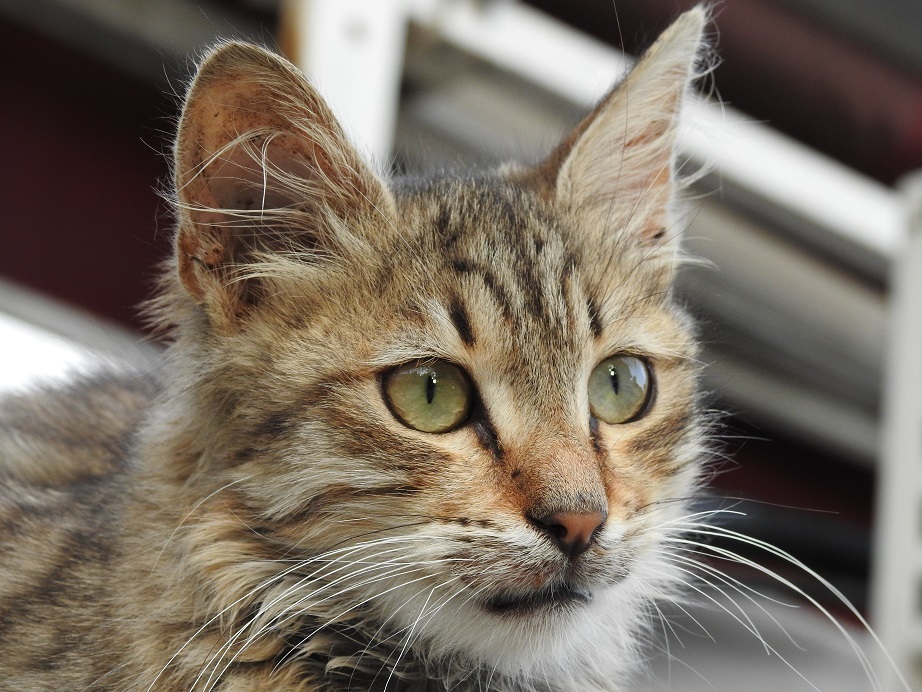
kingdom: Animalia
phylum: Chordata
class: Mammalia
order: Carnivora
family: Felidae
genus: Felis
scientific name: Felis catus
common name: Domestic cat
